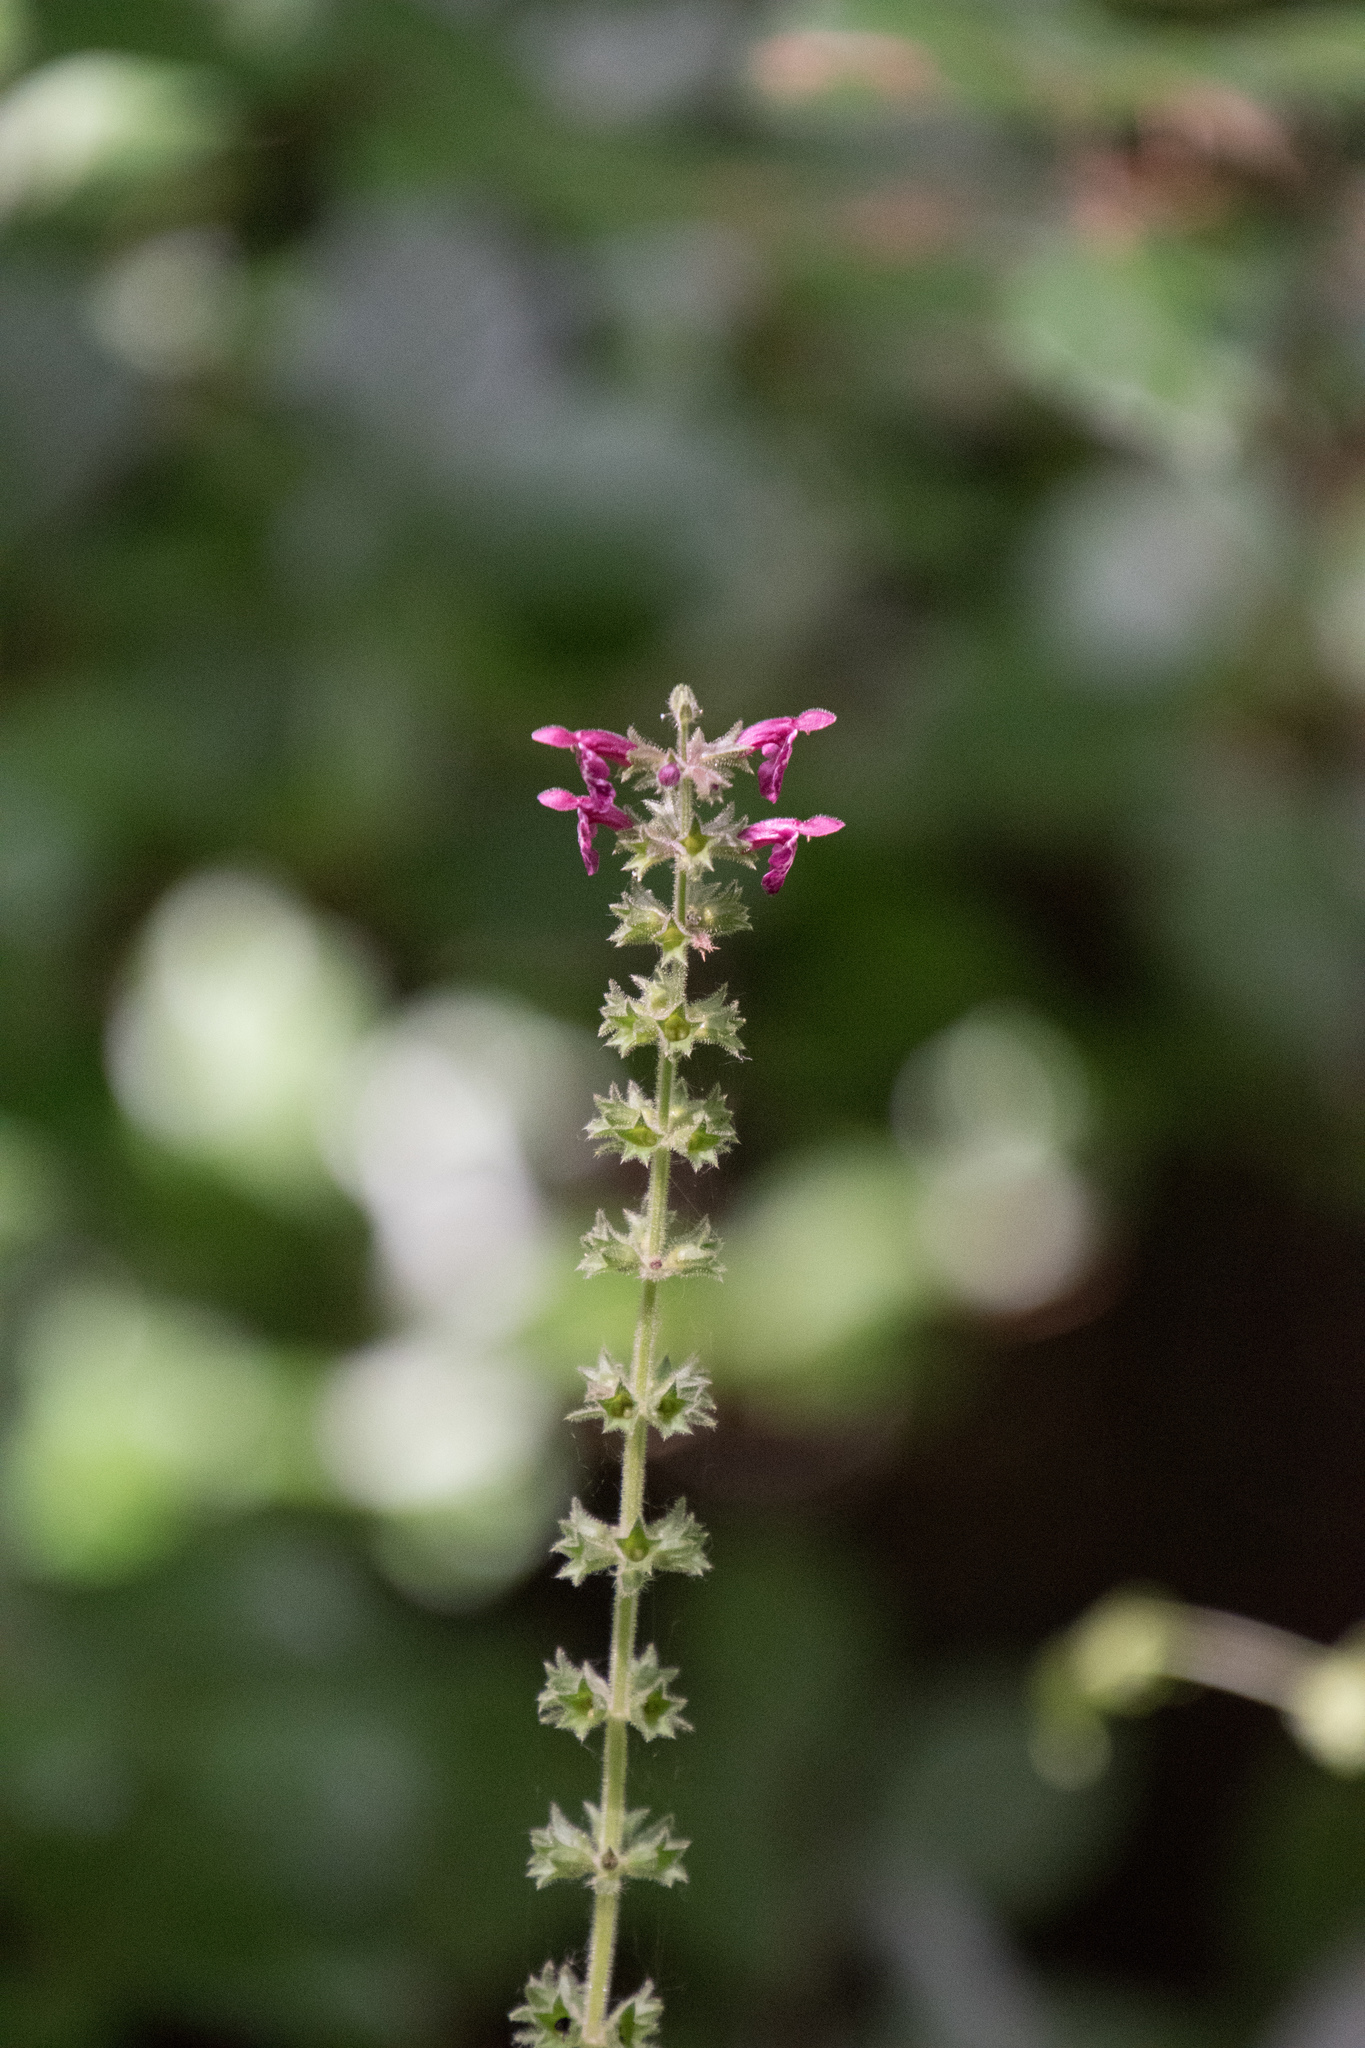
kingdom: Plantae
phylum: Tracheophyta
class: Magnoliopsida
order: Lamiales
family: Lamiaceae
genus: Stachys
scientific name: Stachys sylvatica
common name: Hedge woundwort
